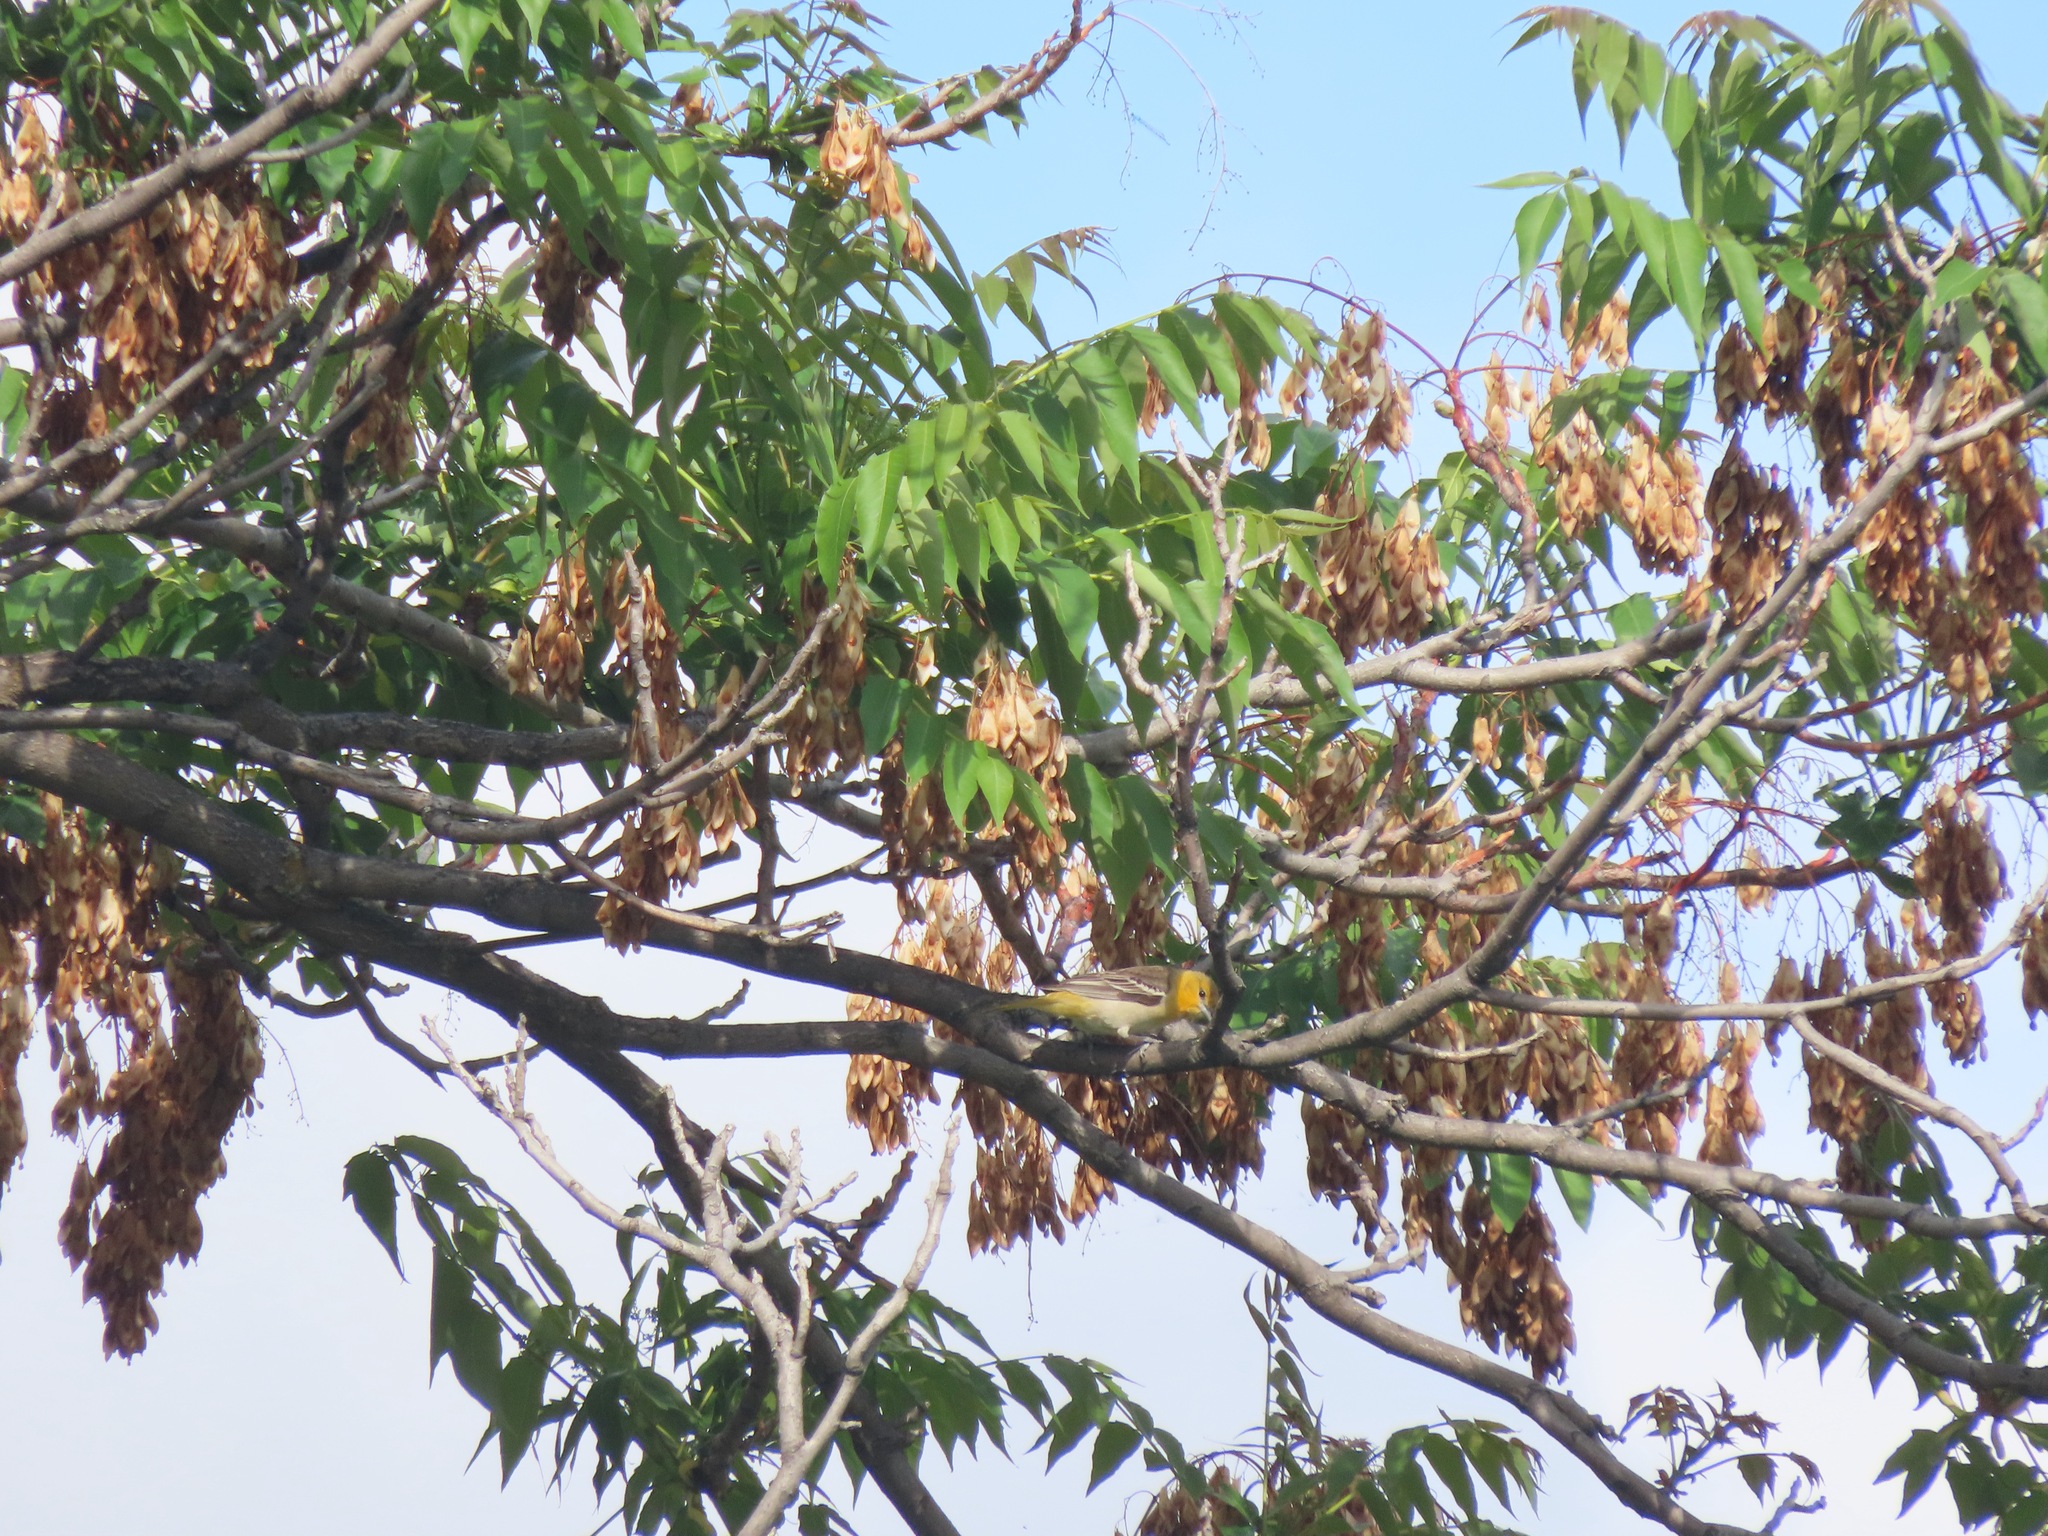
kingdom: Animalia
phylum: Chordata
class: Aves
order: Passeriformes
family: Icteridae
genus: Icterus
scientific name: Icterus bullockii
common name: Bullock's oriole
